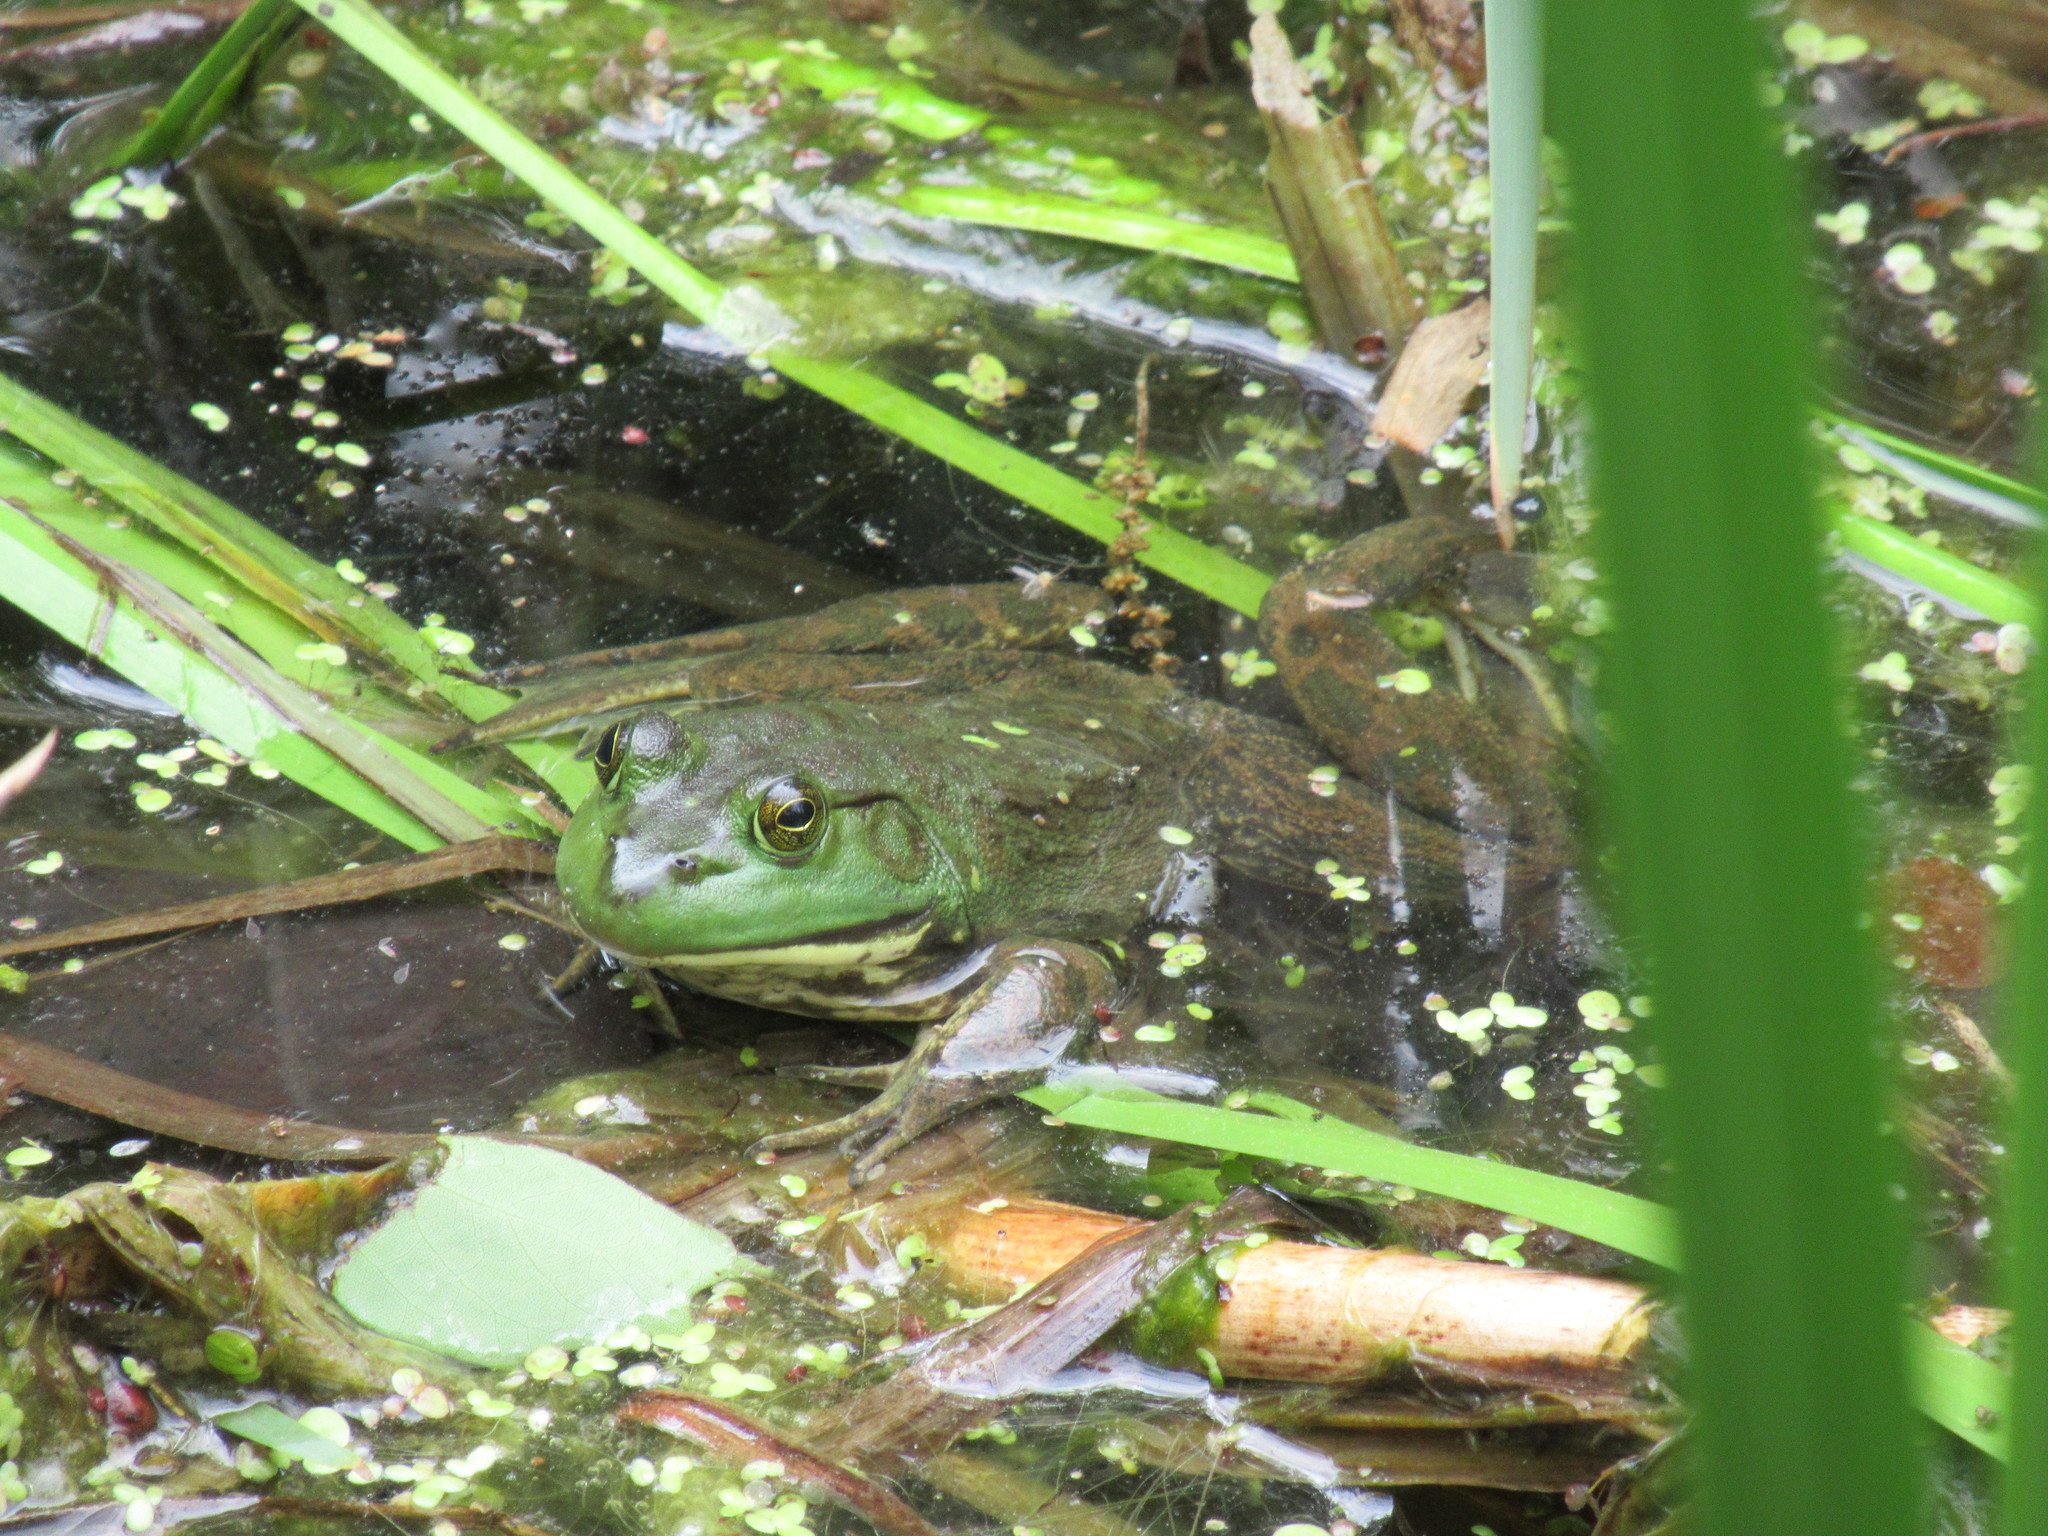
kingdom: Animalia
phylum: Chordata
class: Amphibia
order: Anura
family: Ranidae
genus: Lithobates
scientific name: Lithobates catesbeianus
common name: American bullfrog
